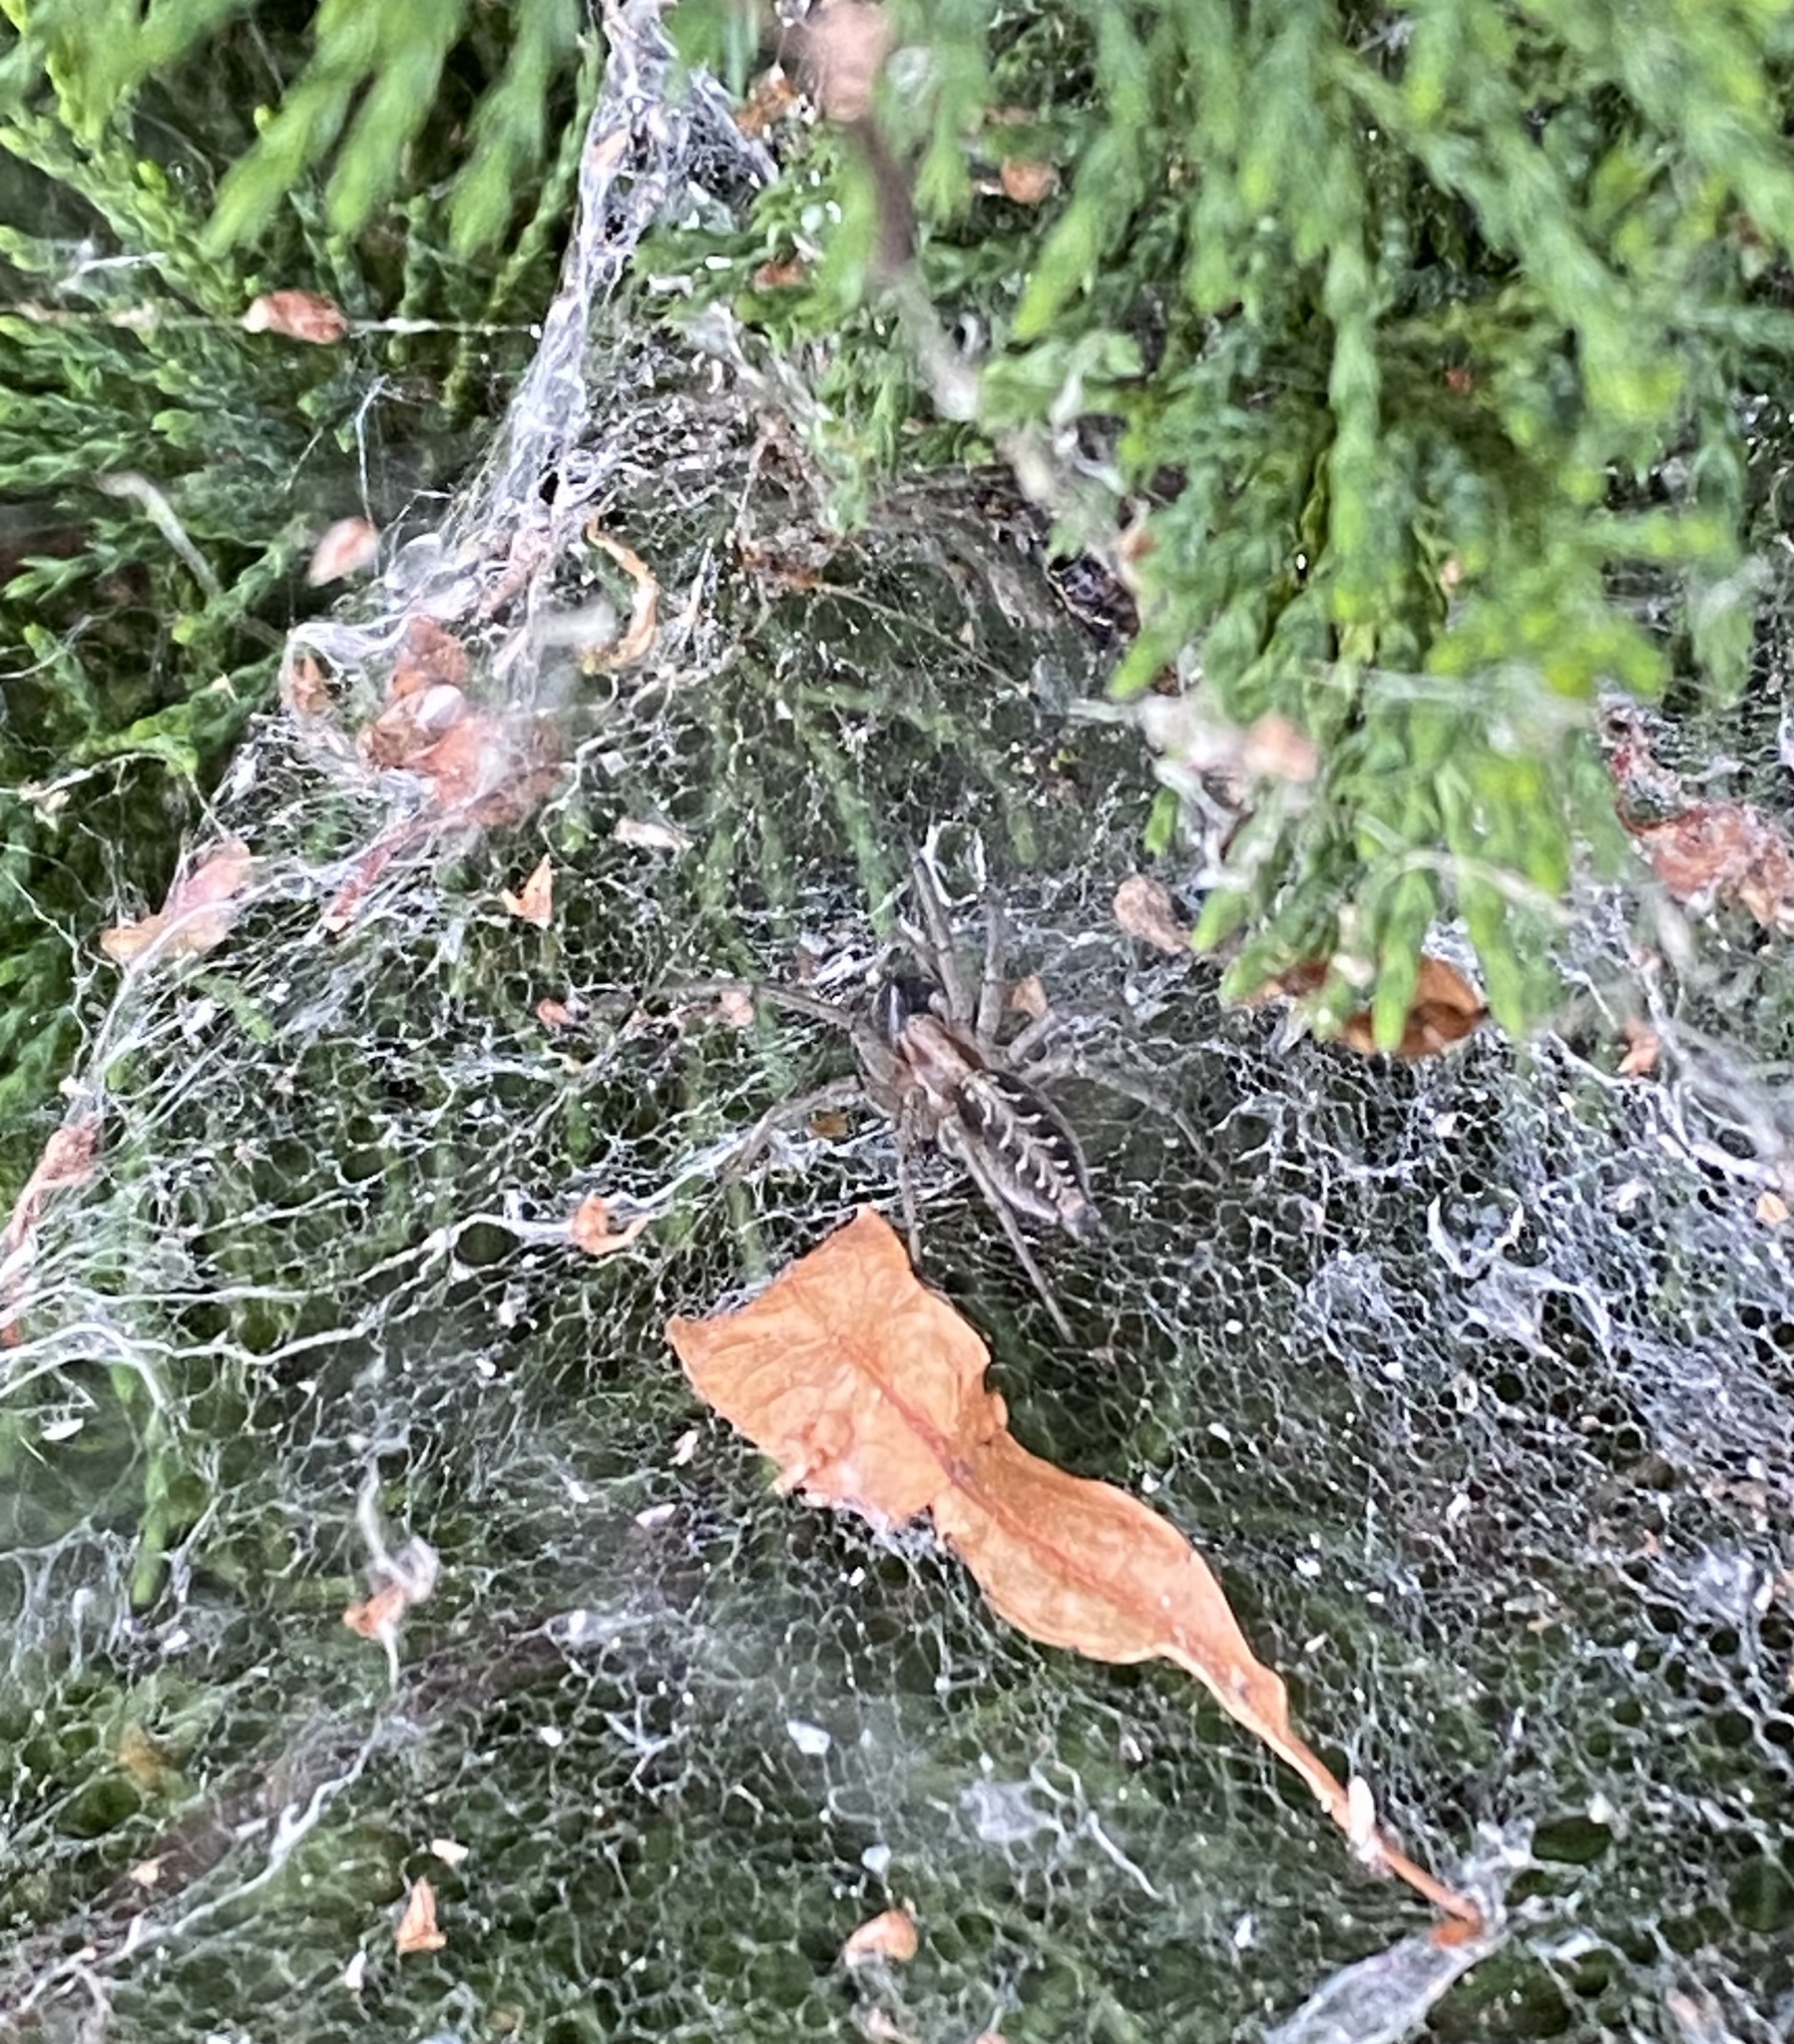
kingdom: Animalia
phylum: Arthropoda
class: Arachnida
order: Araneae
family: Agelenidae
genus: Agelena
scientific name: Agelena labyrinthica
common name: Labyrinth spider
